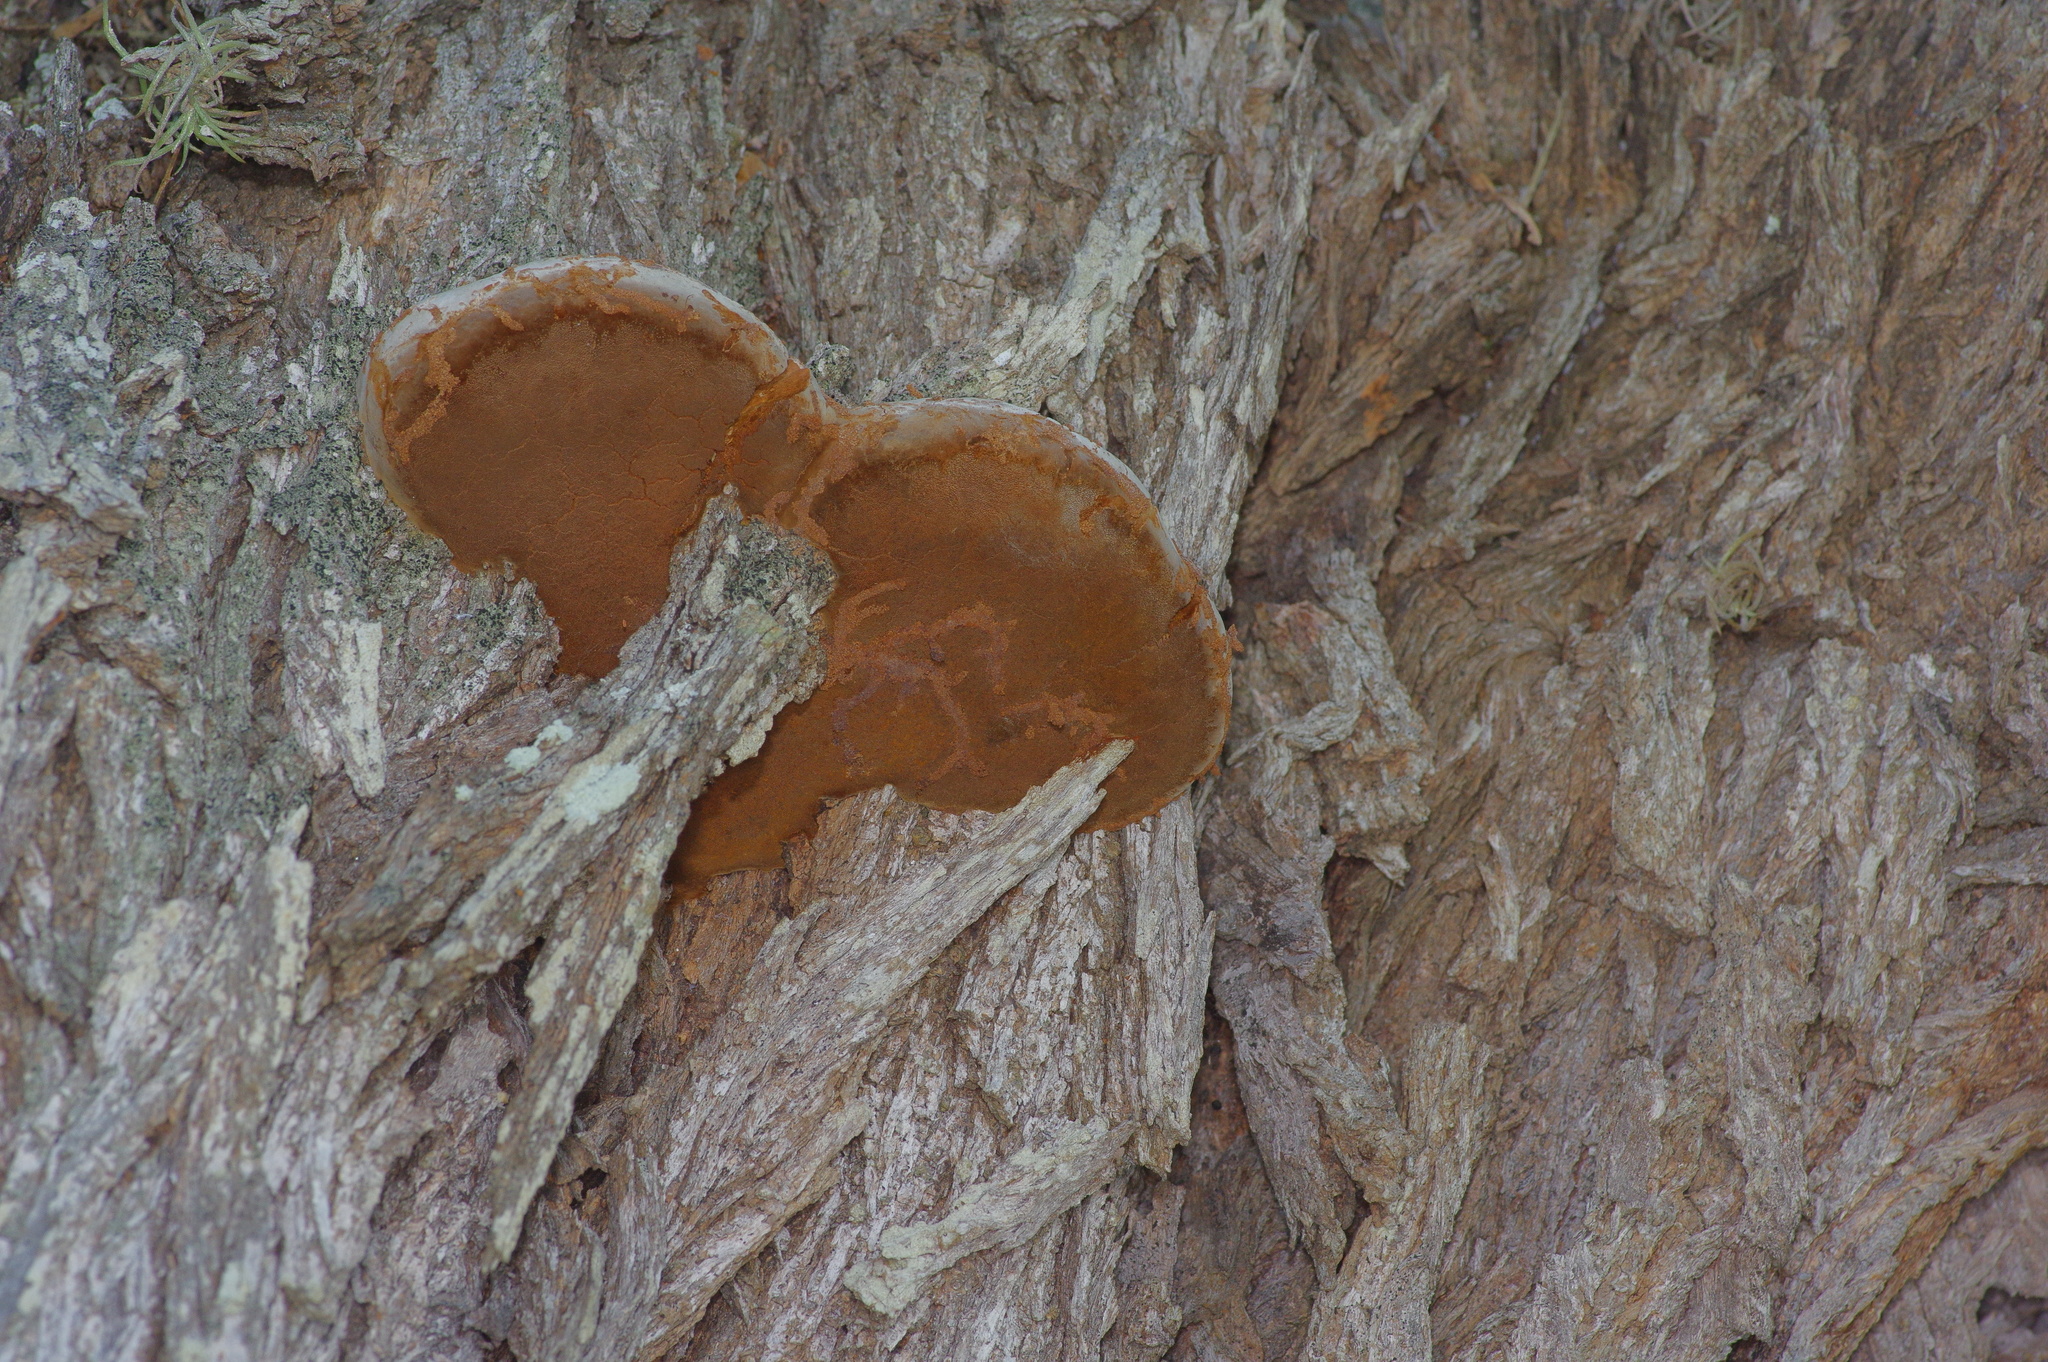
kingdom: Fungi
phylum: Basidiomycota
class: Agaricomycetes
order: Hymenochaetales
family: Hymenochaetaceae
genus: Phellinotus
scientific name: Phellinotus badius
